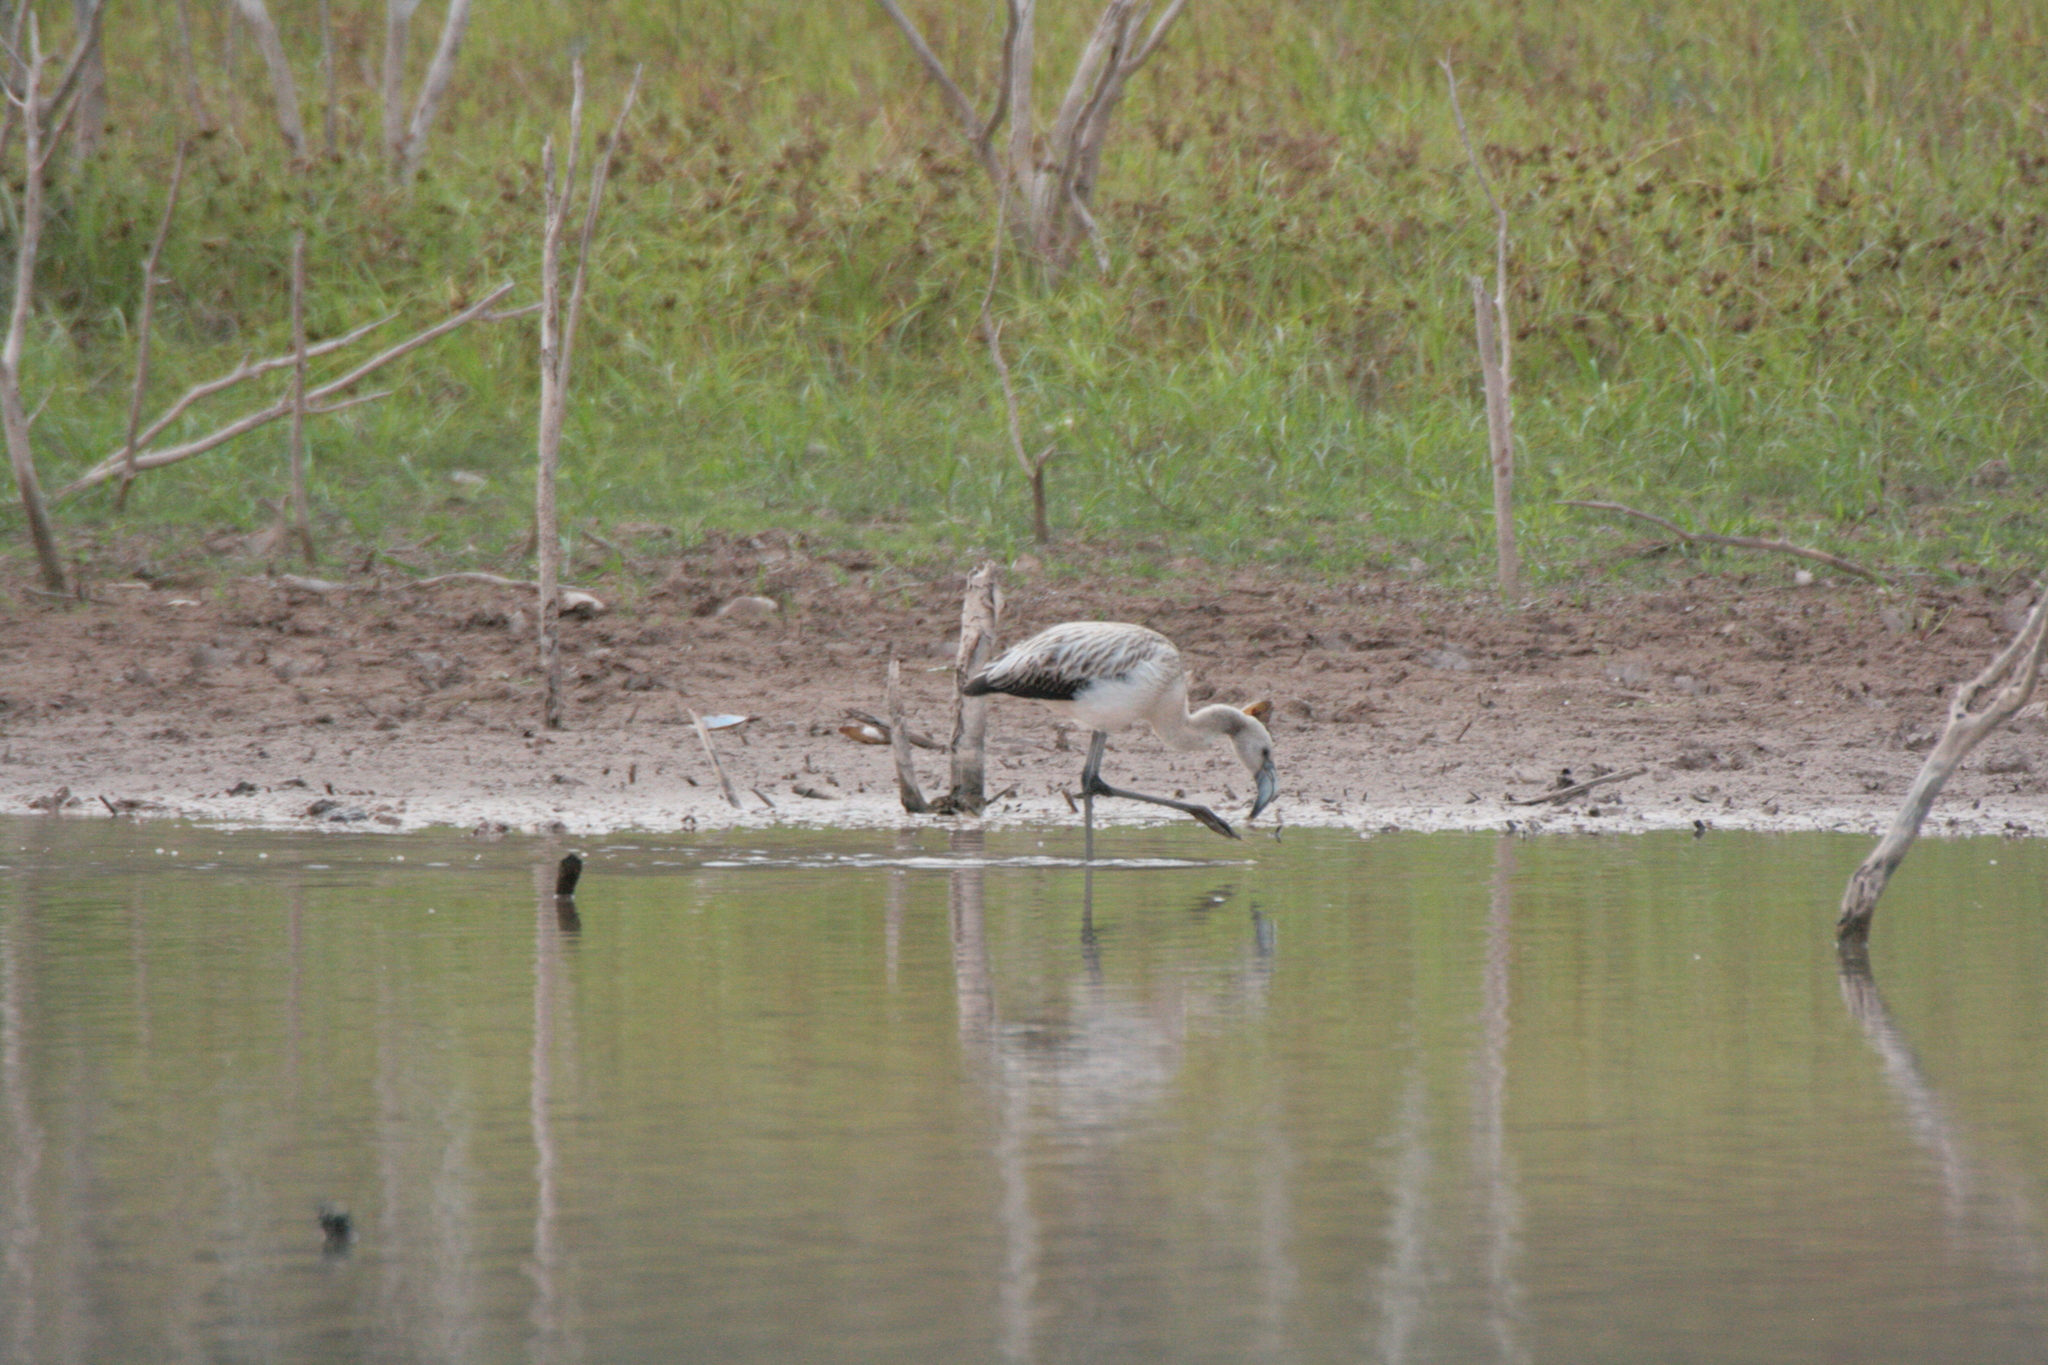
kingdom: Animalia
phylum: Chordata
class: Aves
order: Phoenicopteriformes
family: Phoenicopteridae
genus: Phoenicopterus
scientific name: Phoenicopterus chilensis
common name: Chilean flamingo
